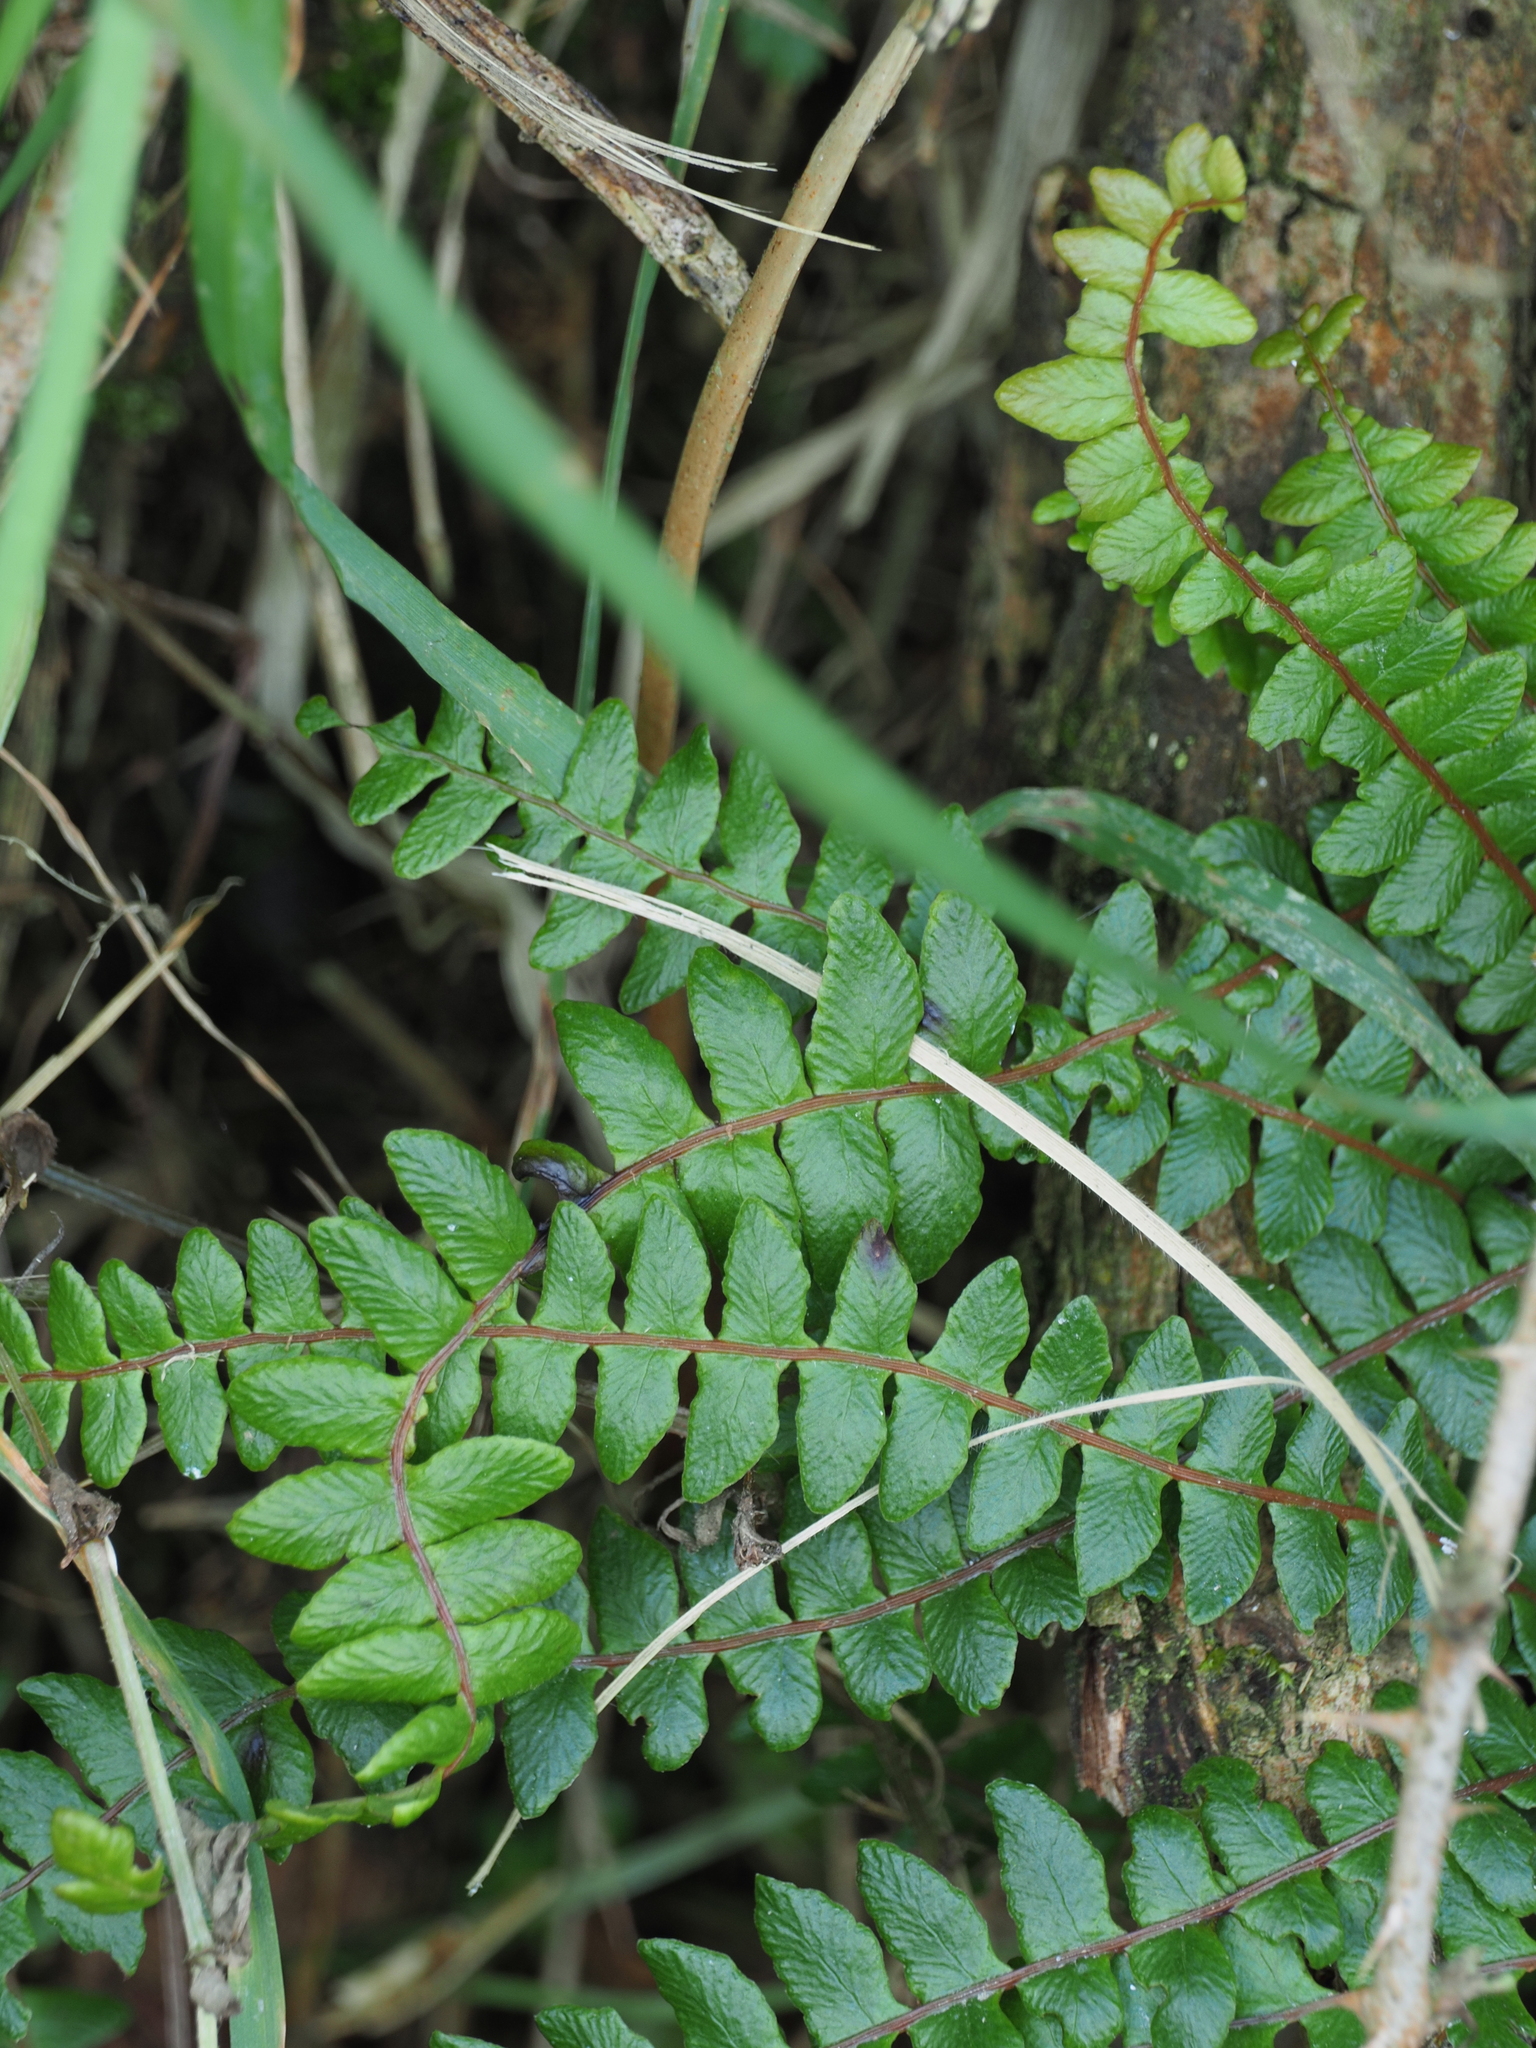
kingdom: Plantae
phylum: Tracheophyta
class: Polypodiopsida
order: Polypodiales
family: Blechnaceae
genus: Austroblechnum
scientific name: Austroblechnum penna-marina
